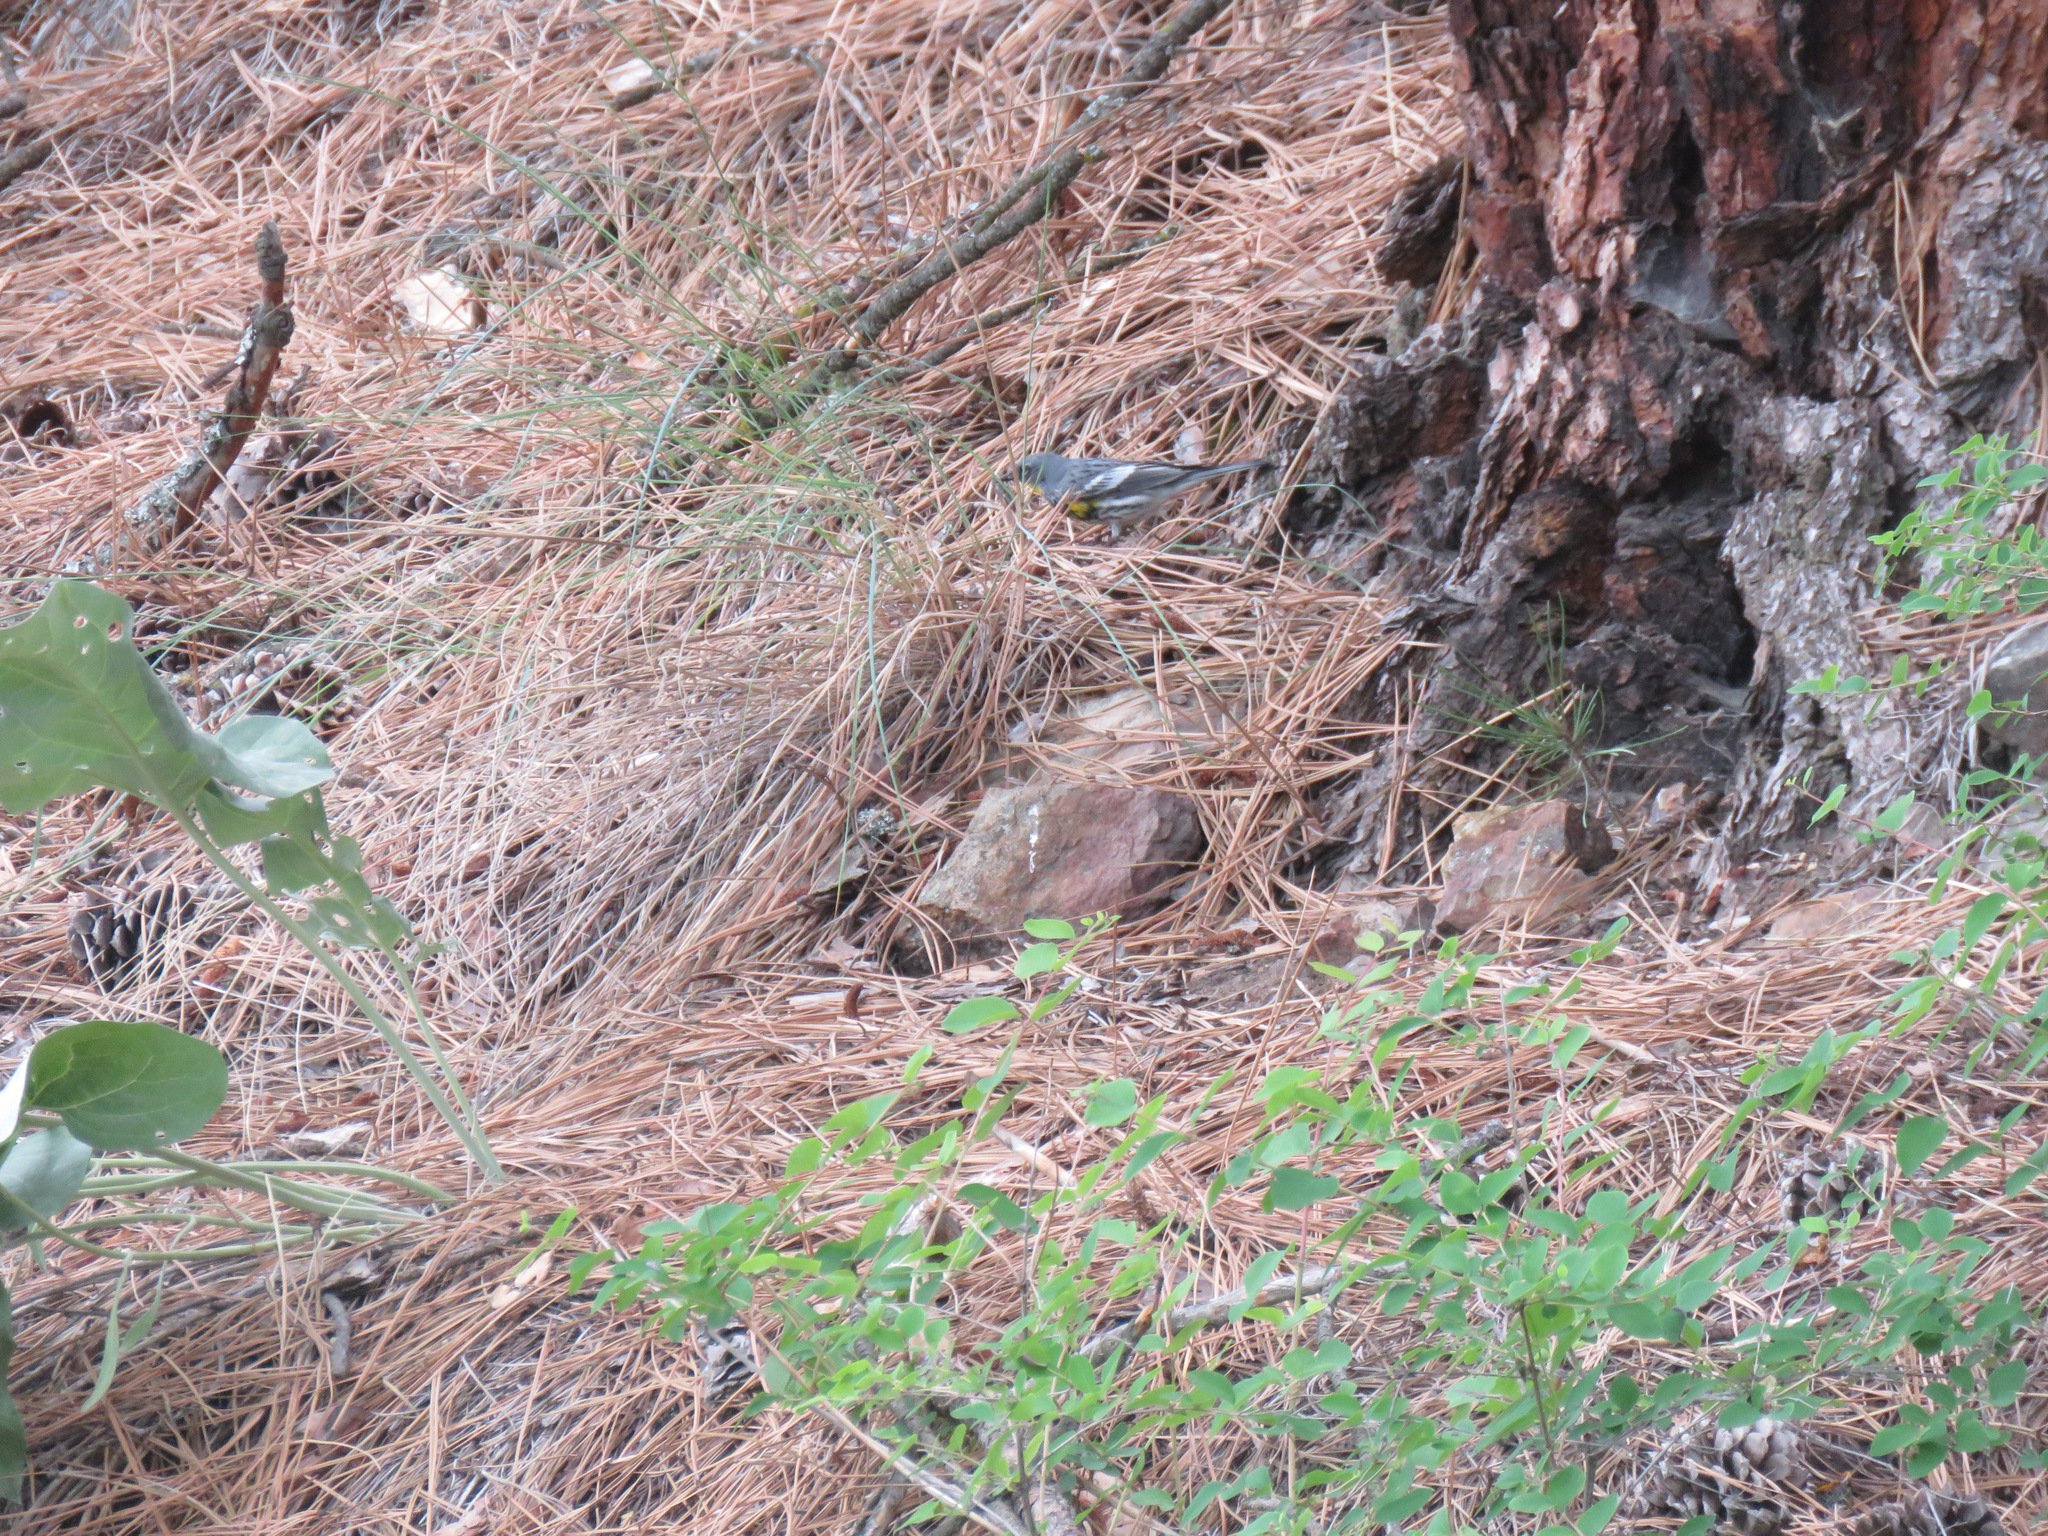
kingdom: Animalia
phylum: Chordata
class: Aves
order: Passeriformes
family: Parulidae
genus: Setophaga
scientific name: Setophaga coronata
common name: Myrtle warbler
